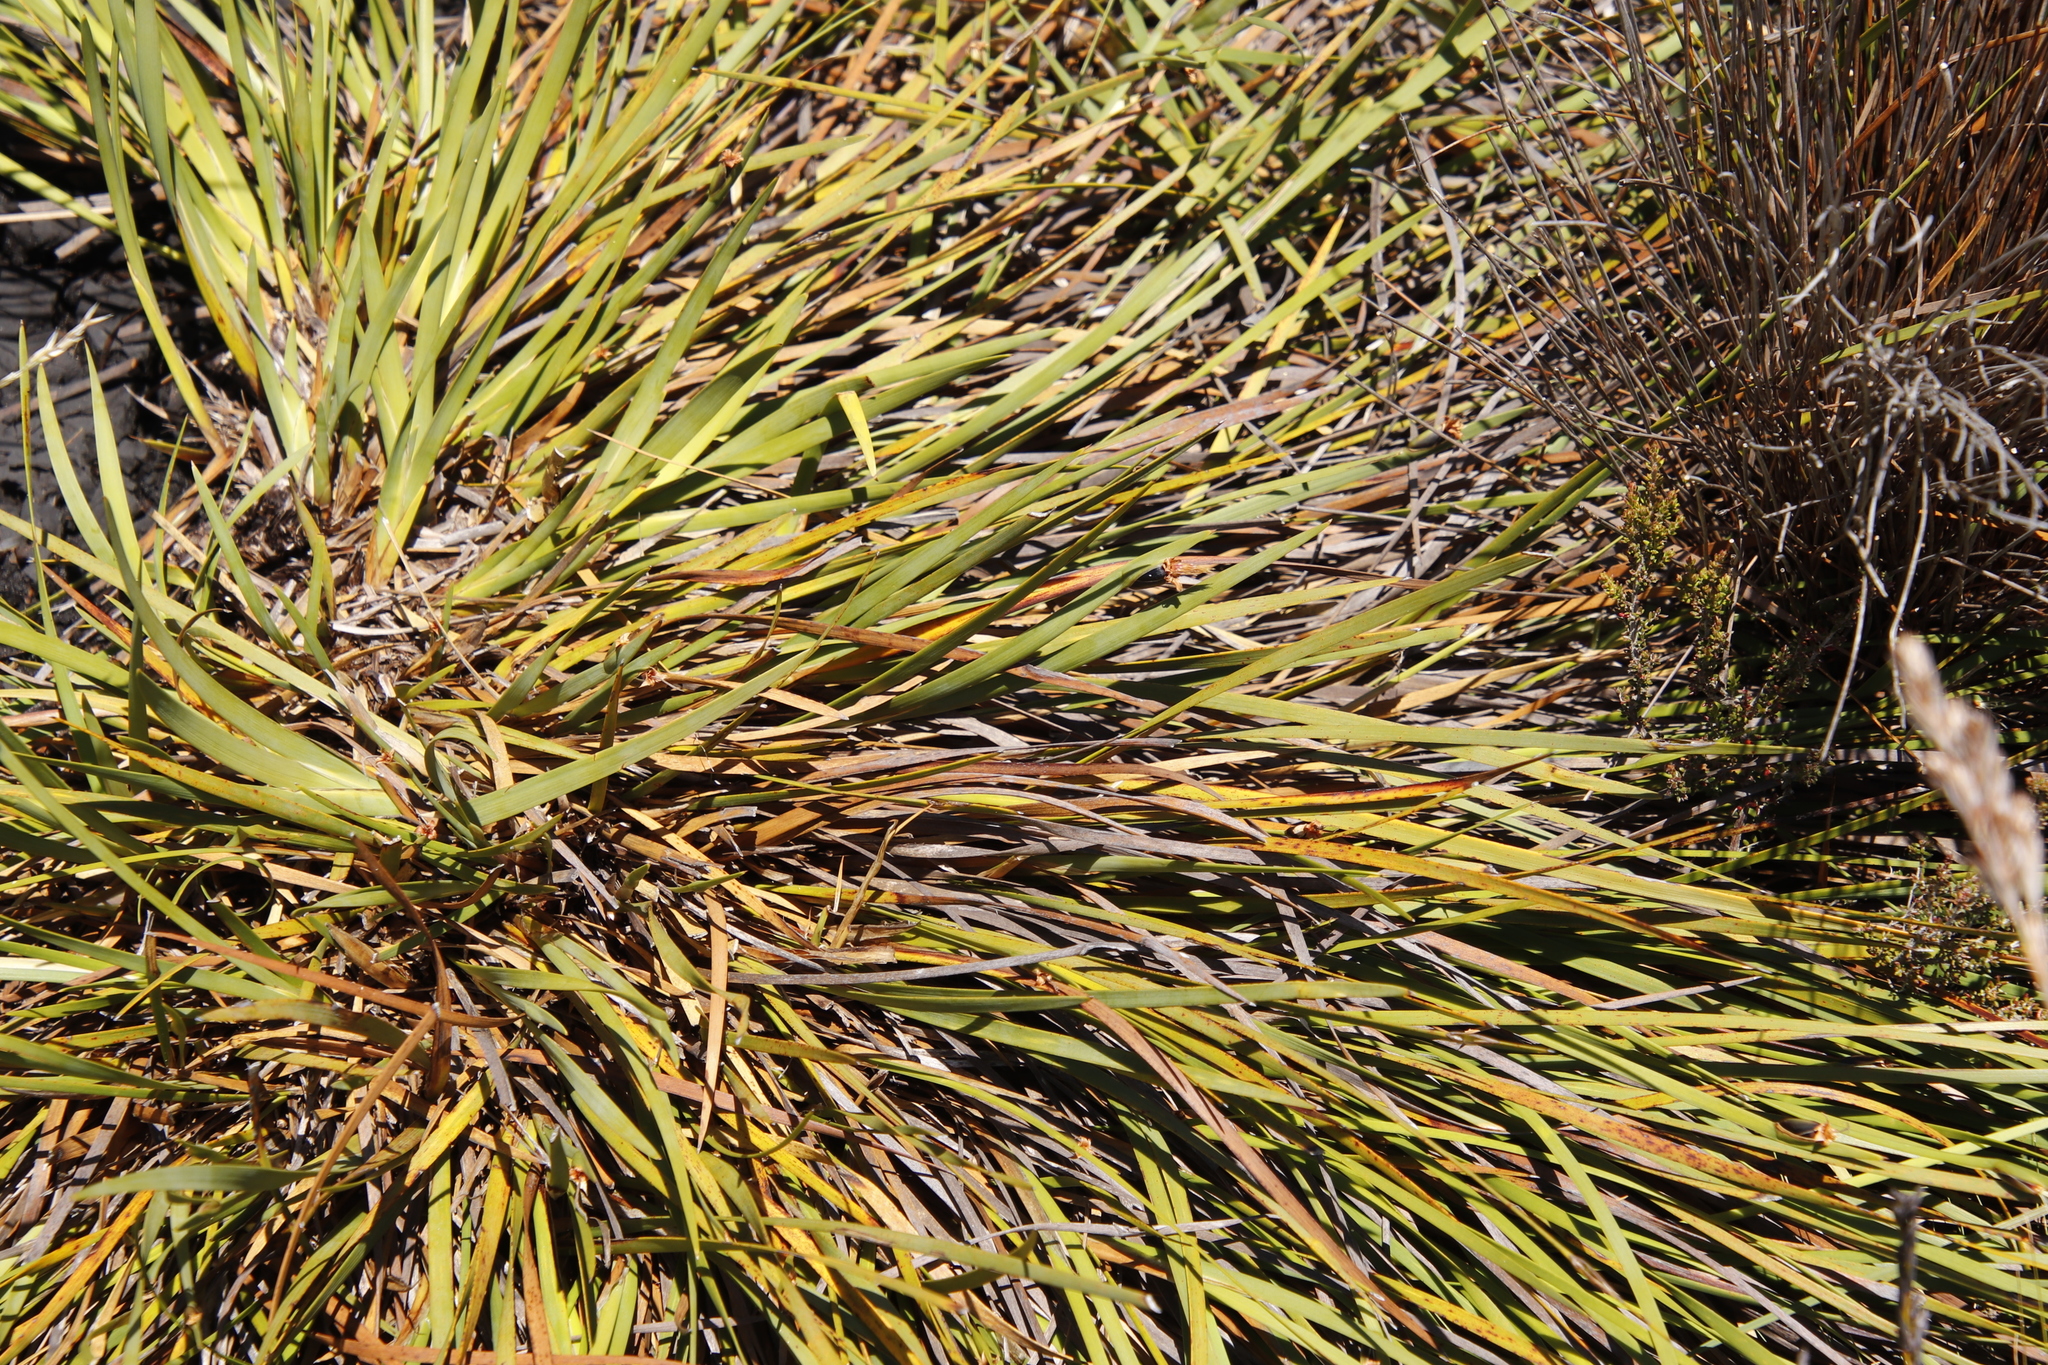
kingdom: Plantae
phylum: Tracheophyta
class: Liliopsida
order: Poales
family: Cyperaceae
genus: Chrysitrix
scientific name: Chrysitrix capensis
